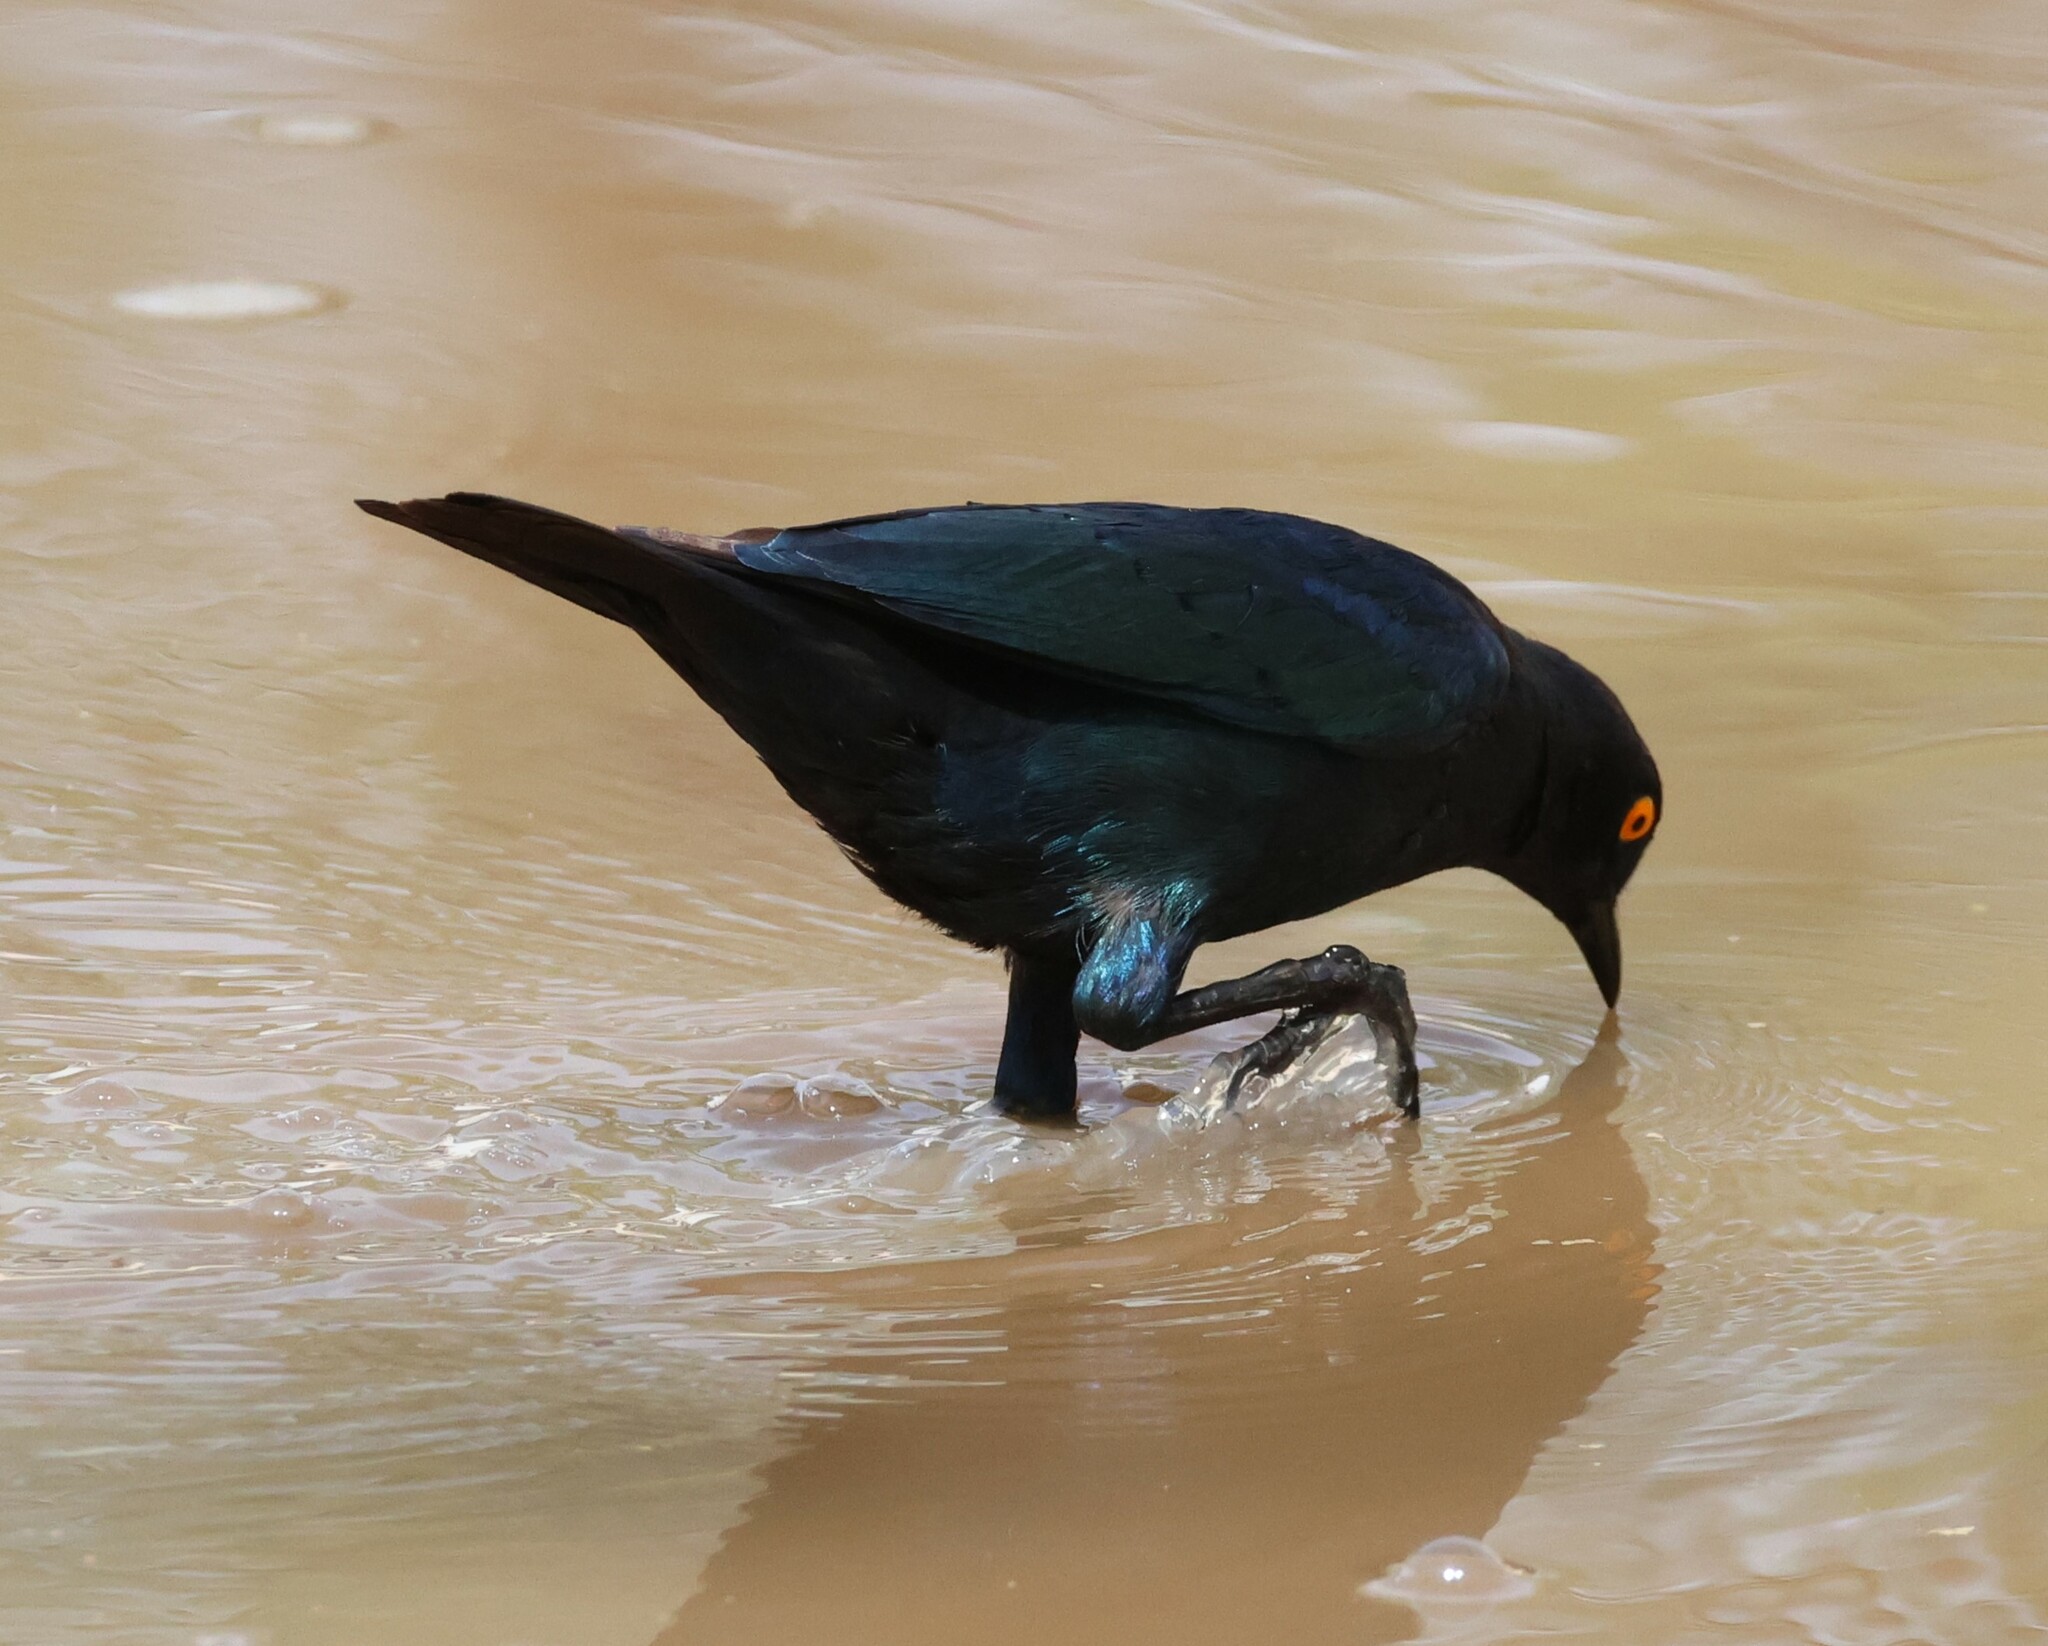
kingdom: Animalia
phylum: Chordata
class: Aves
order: Passeriformes
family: Sturnidae
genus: Lamprotornis
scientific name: Lamprotornis nitens
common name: Cape starling
